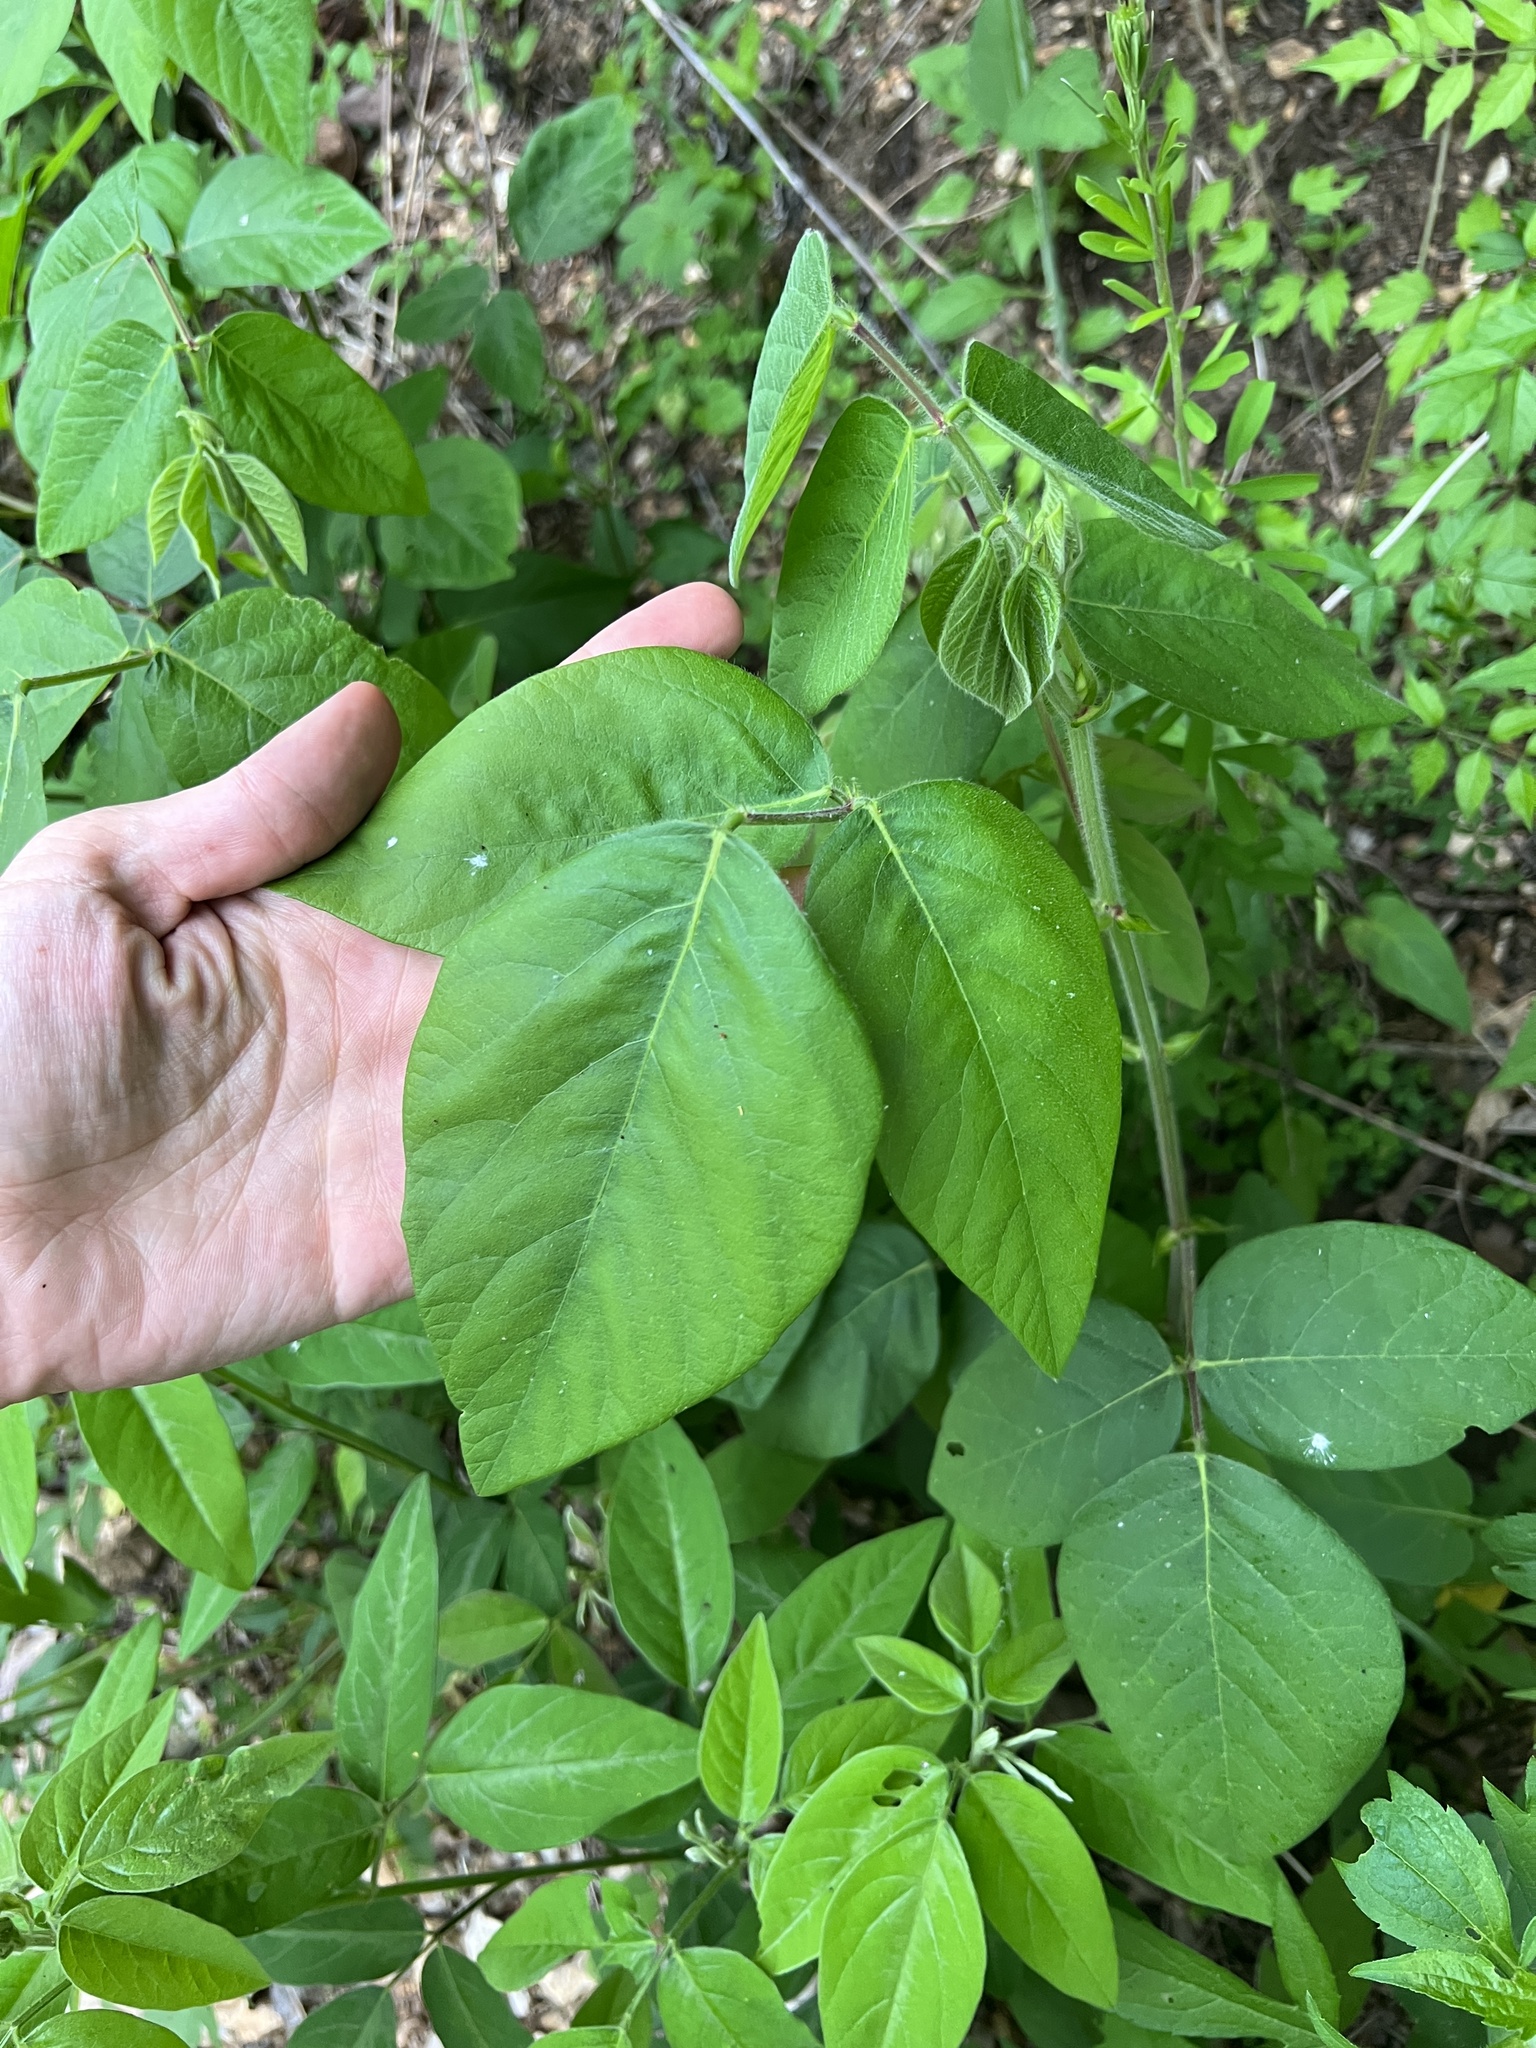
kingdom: Plantae
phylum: Tracheophyta
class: Magnoliopsida
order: Fabales
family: Fabaceae
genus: Desmodium
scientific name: Desmodium canescens
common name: Hoary tick-clover
